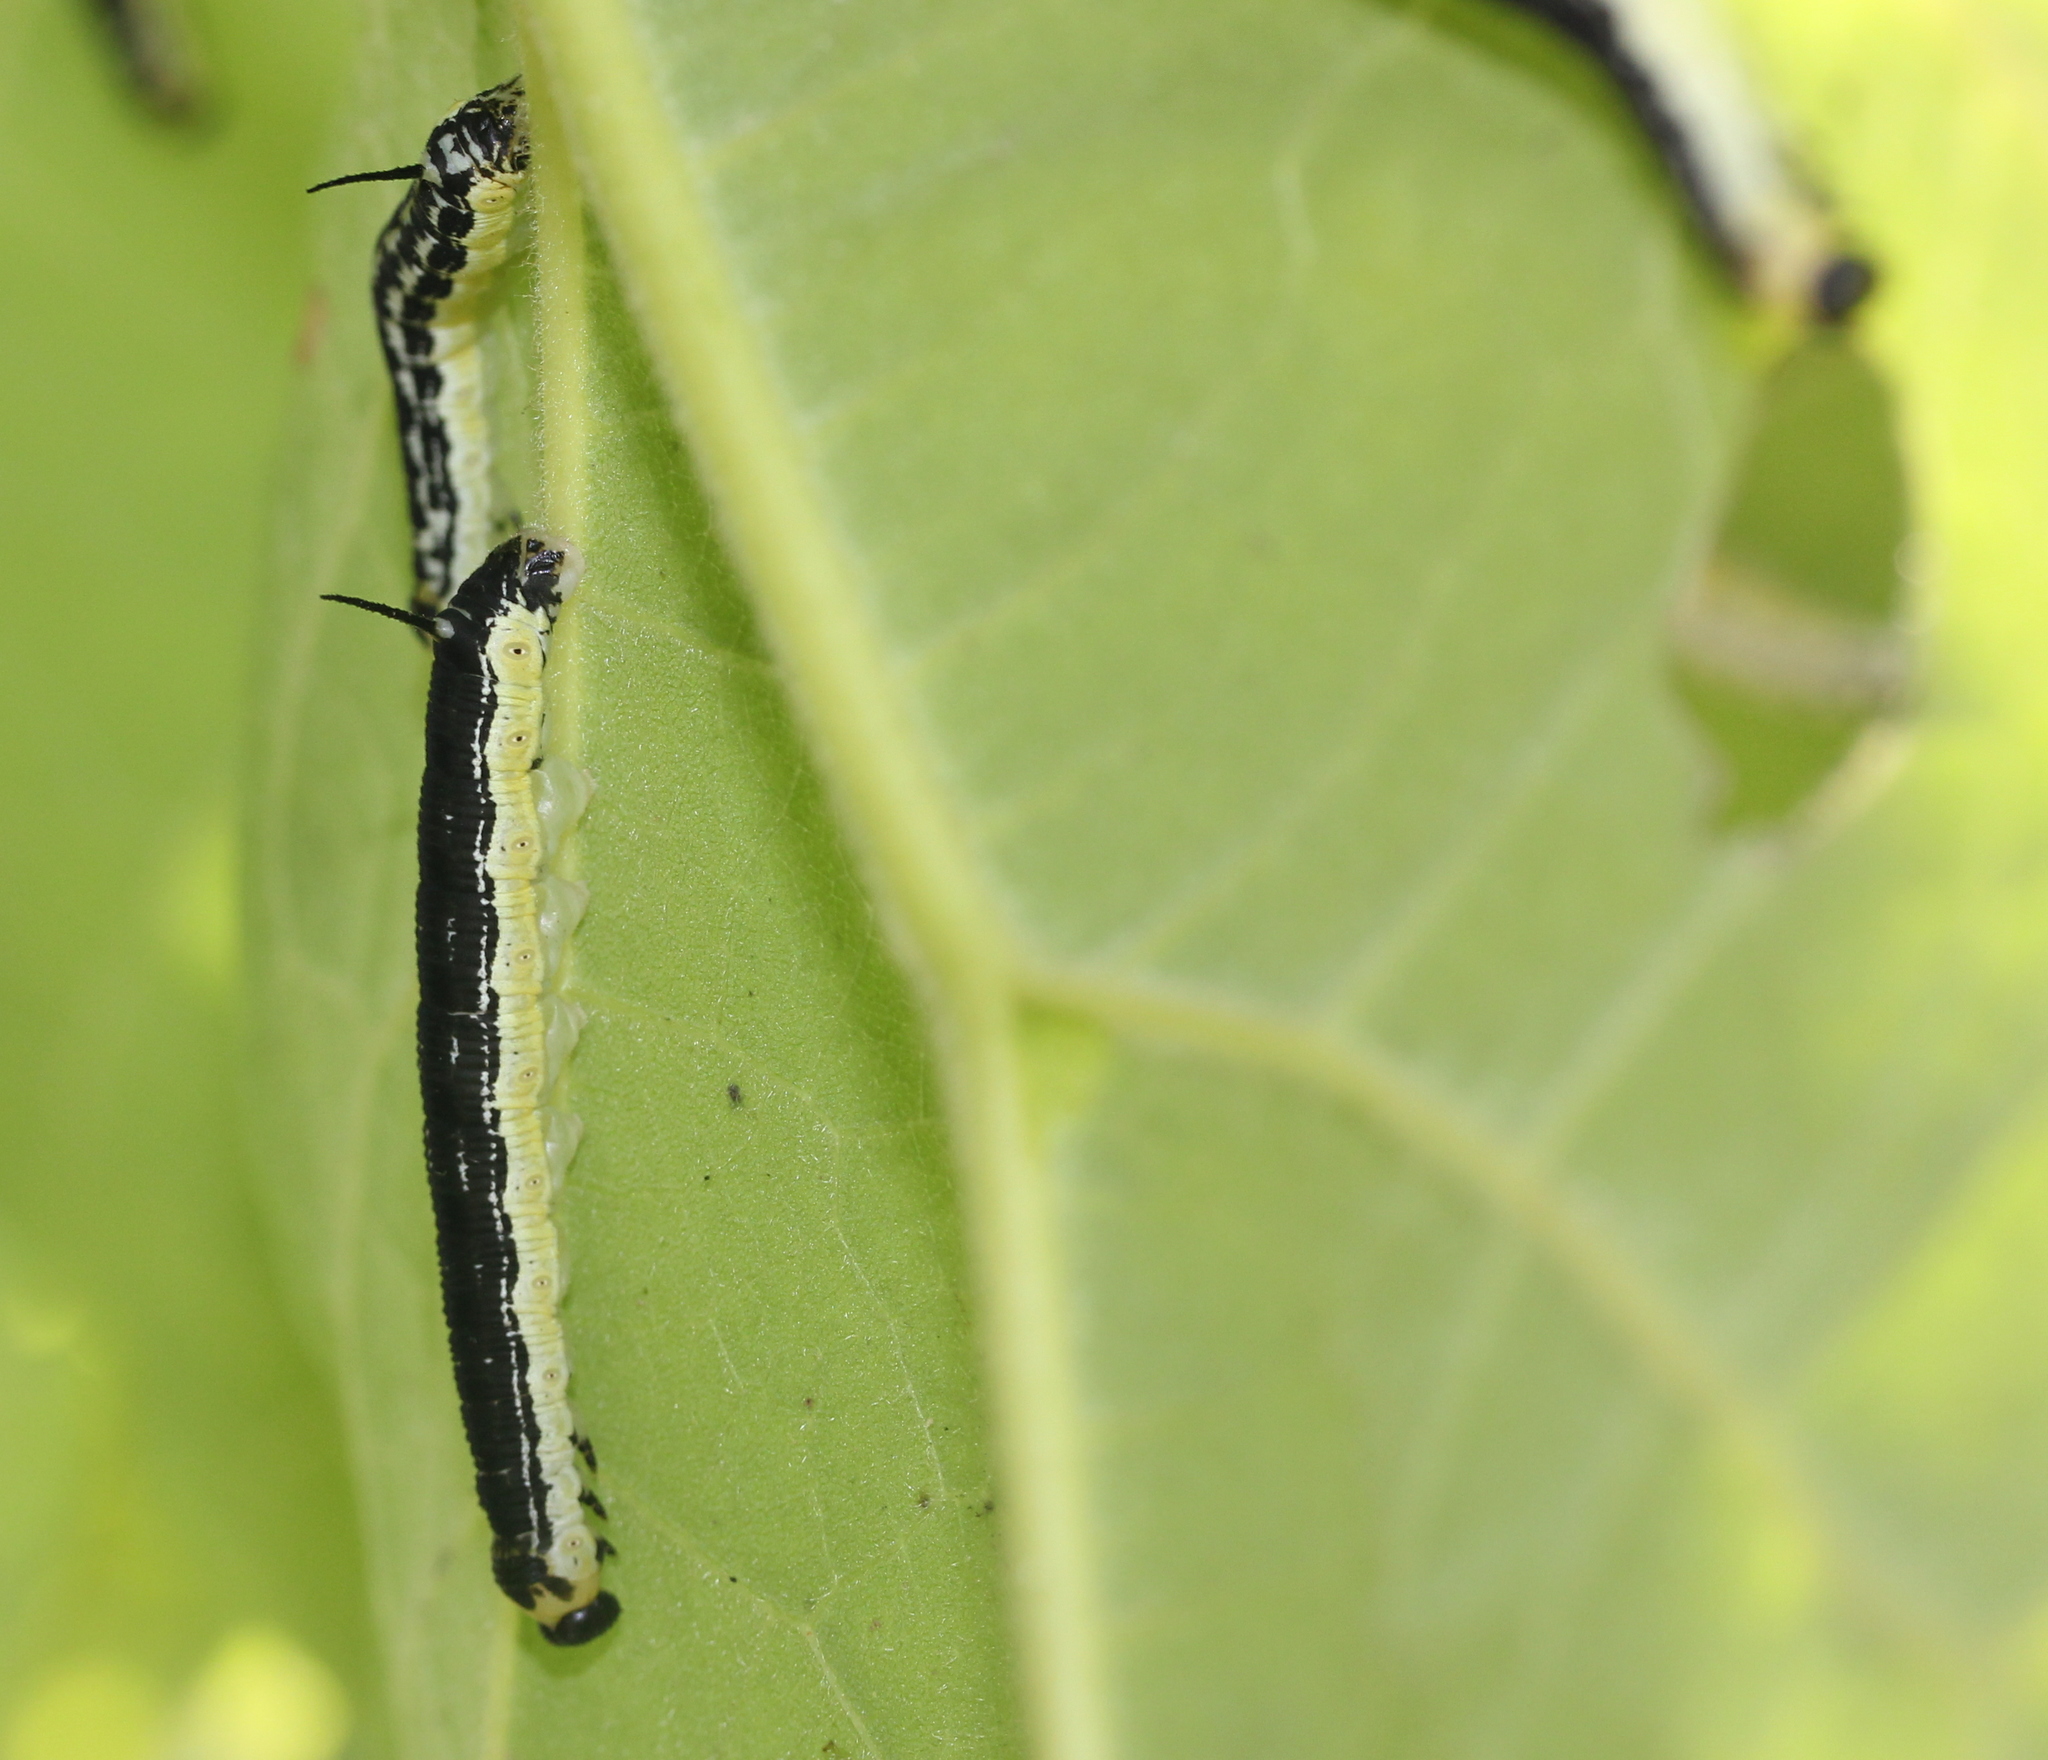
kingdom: Animalia
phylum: Arthropoda
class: Insecta
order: Lepidoptera
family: Sphingidae
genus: Ceratomia
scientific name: Ceratomia catalpae
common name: Catalpa hornworm
